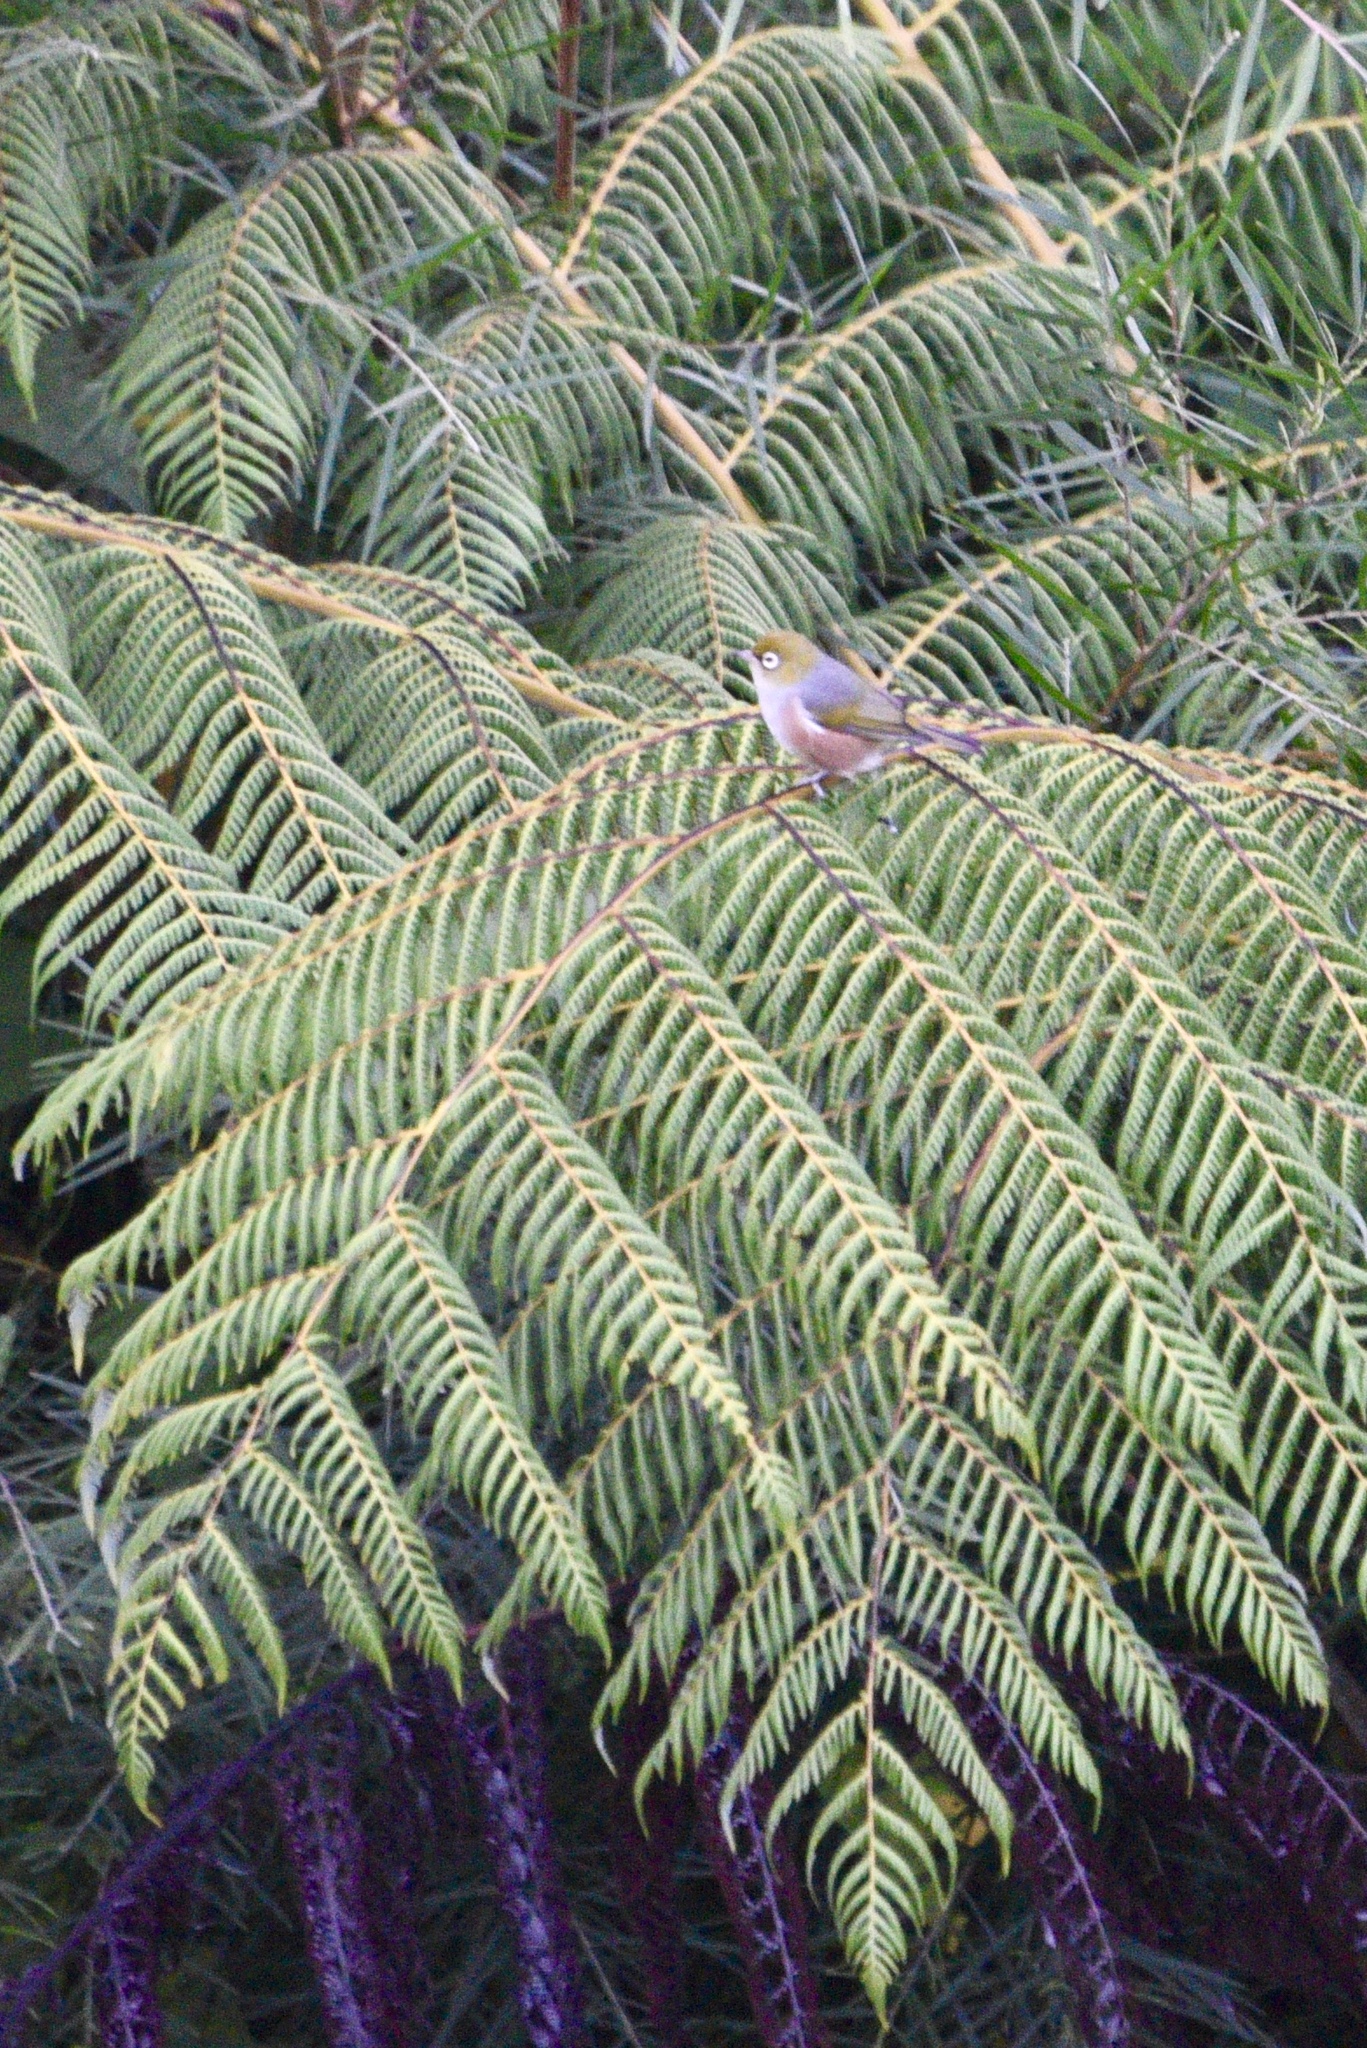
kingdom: Animalia
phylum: Chordata
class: Aves
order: Passeriformes
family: Zosteropidae
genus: Zosterops
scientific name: Zosterops lateralis
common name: Silvereye
